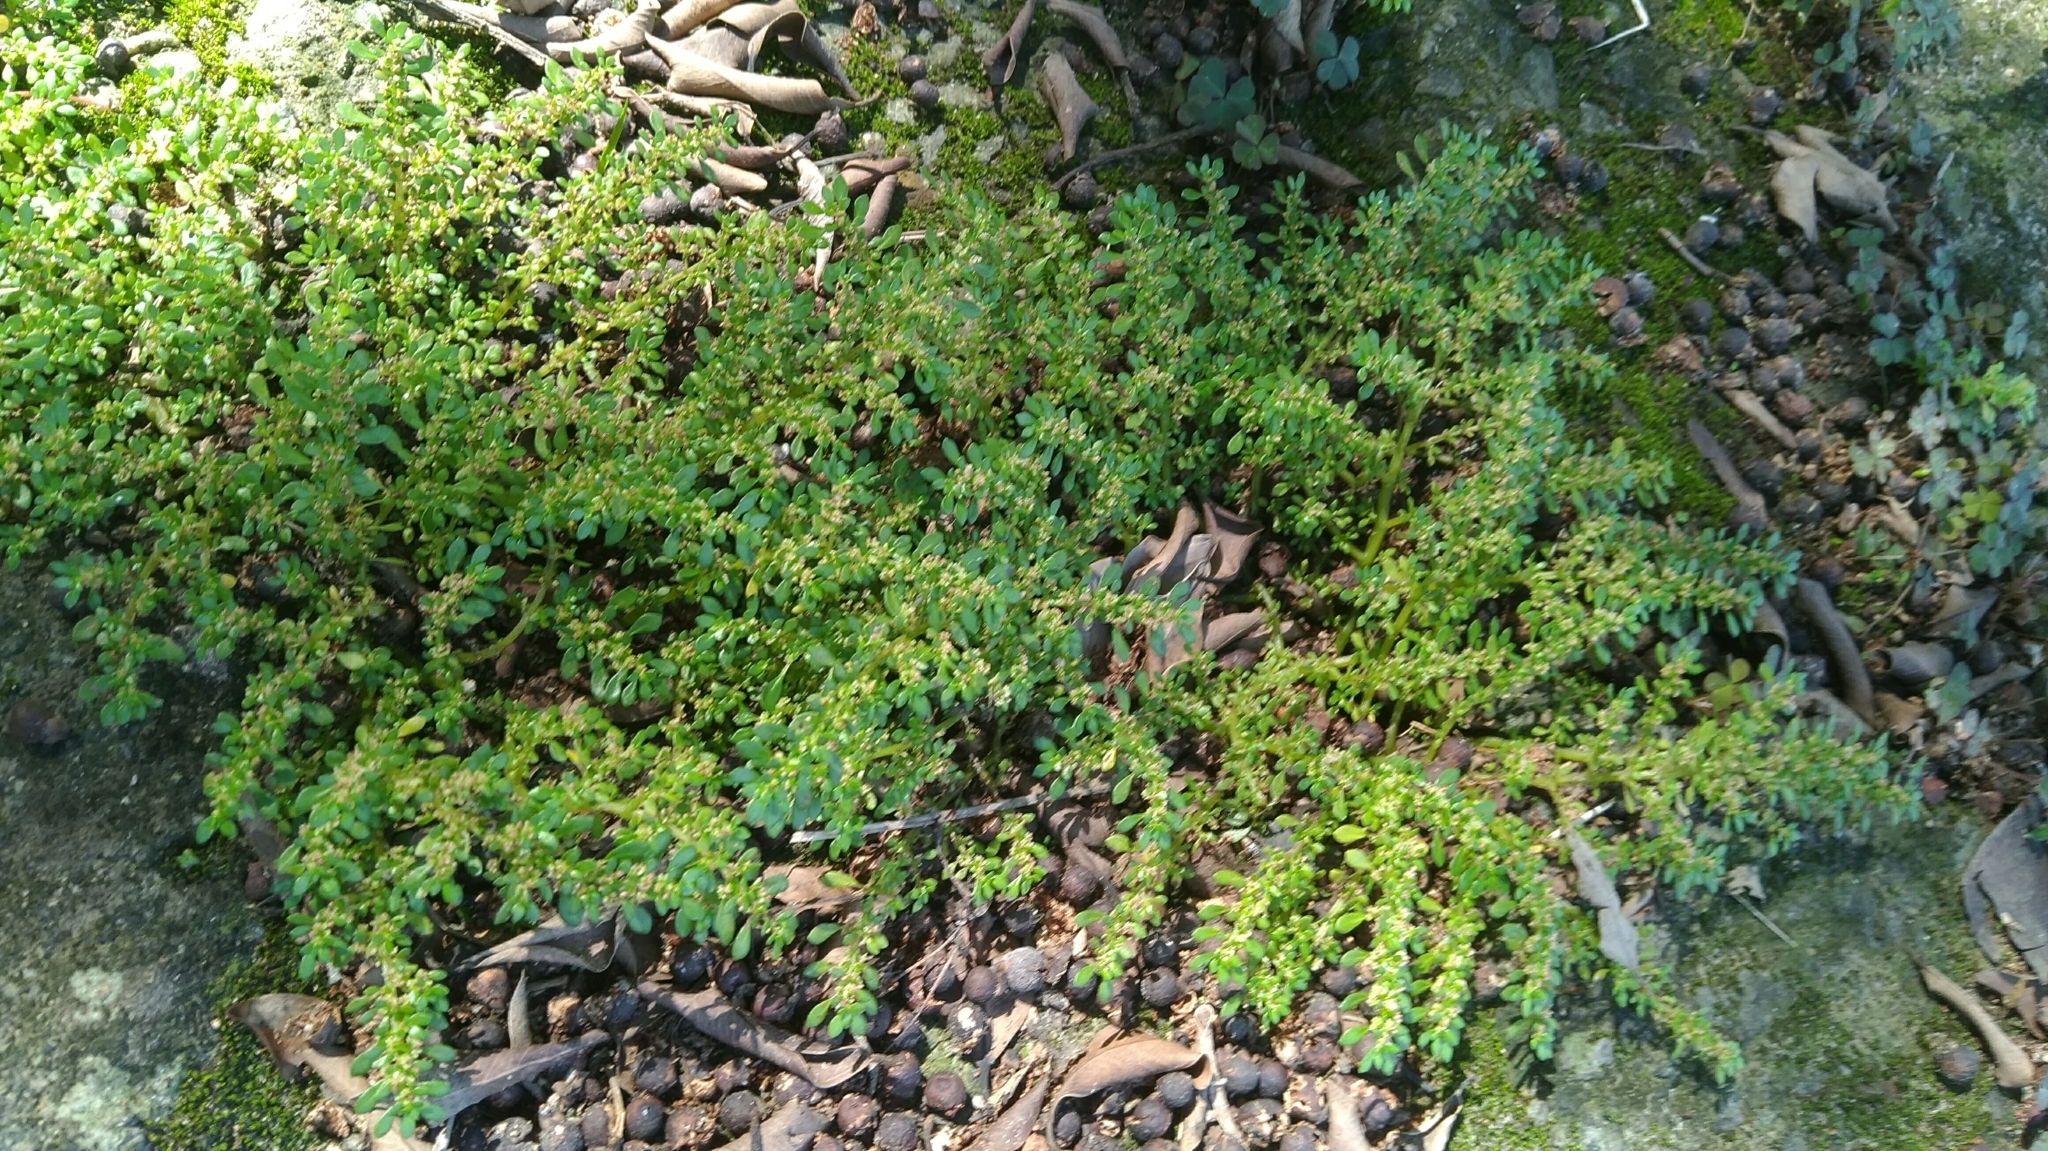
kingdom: Plantae
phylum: Tracheophyta
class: Magnoliopsida
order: Rosales
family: Urticaceae
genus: Pilea
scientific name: Pilea microphylla
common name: Artillery-plant
